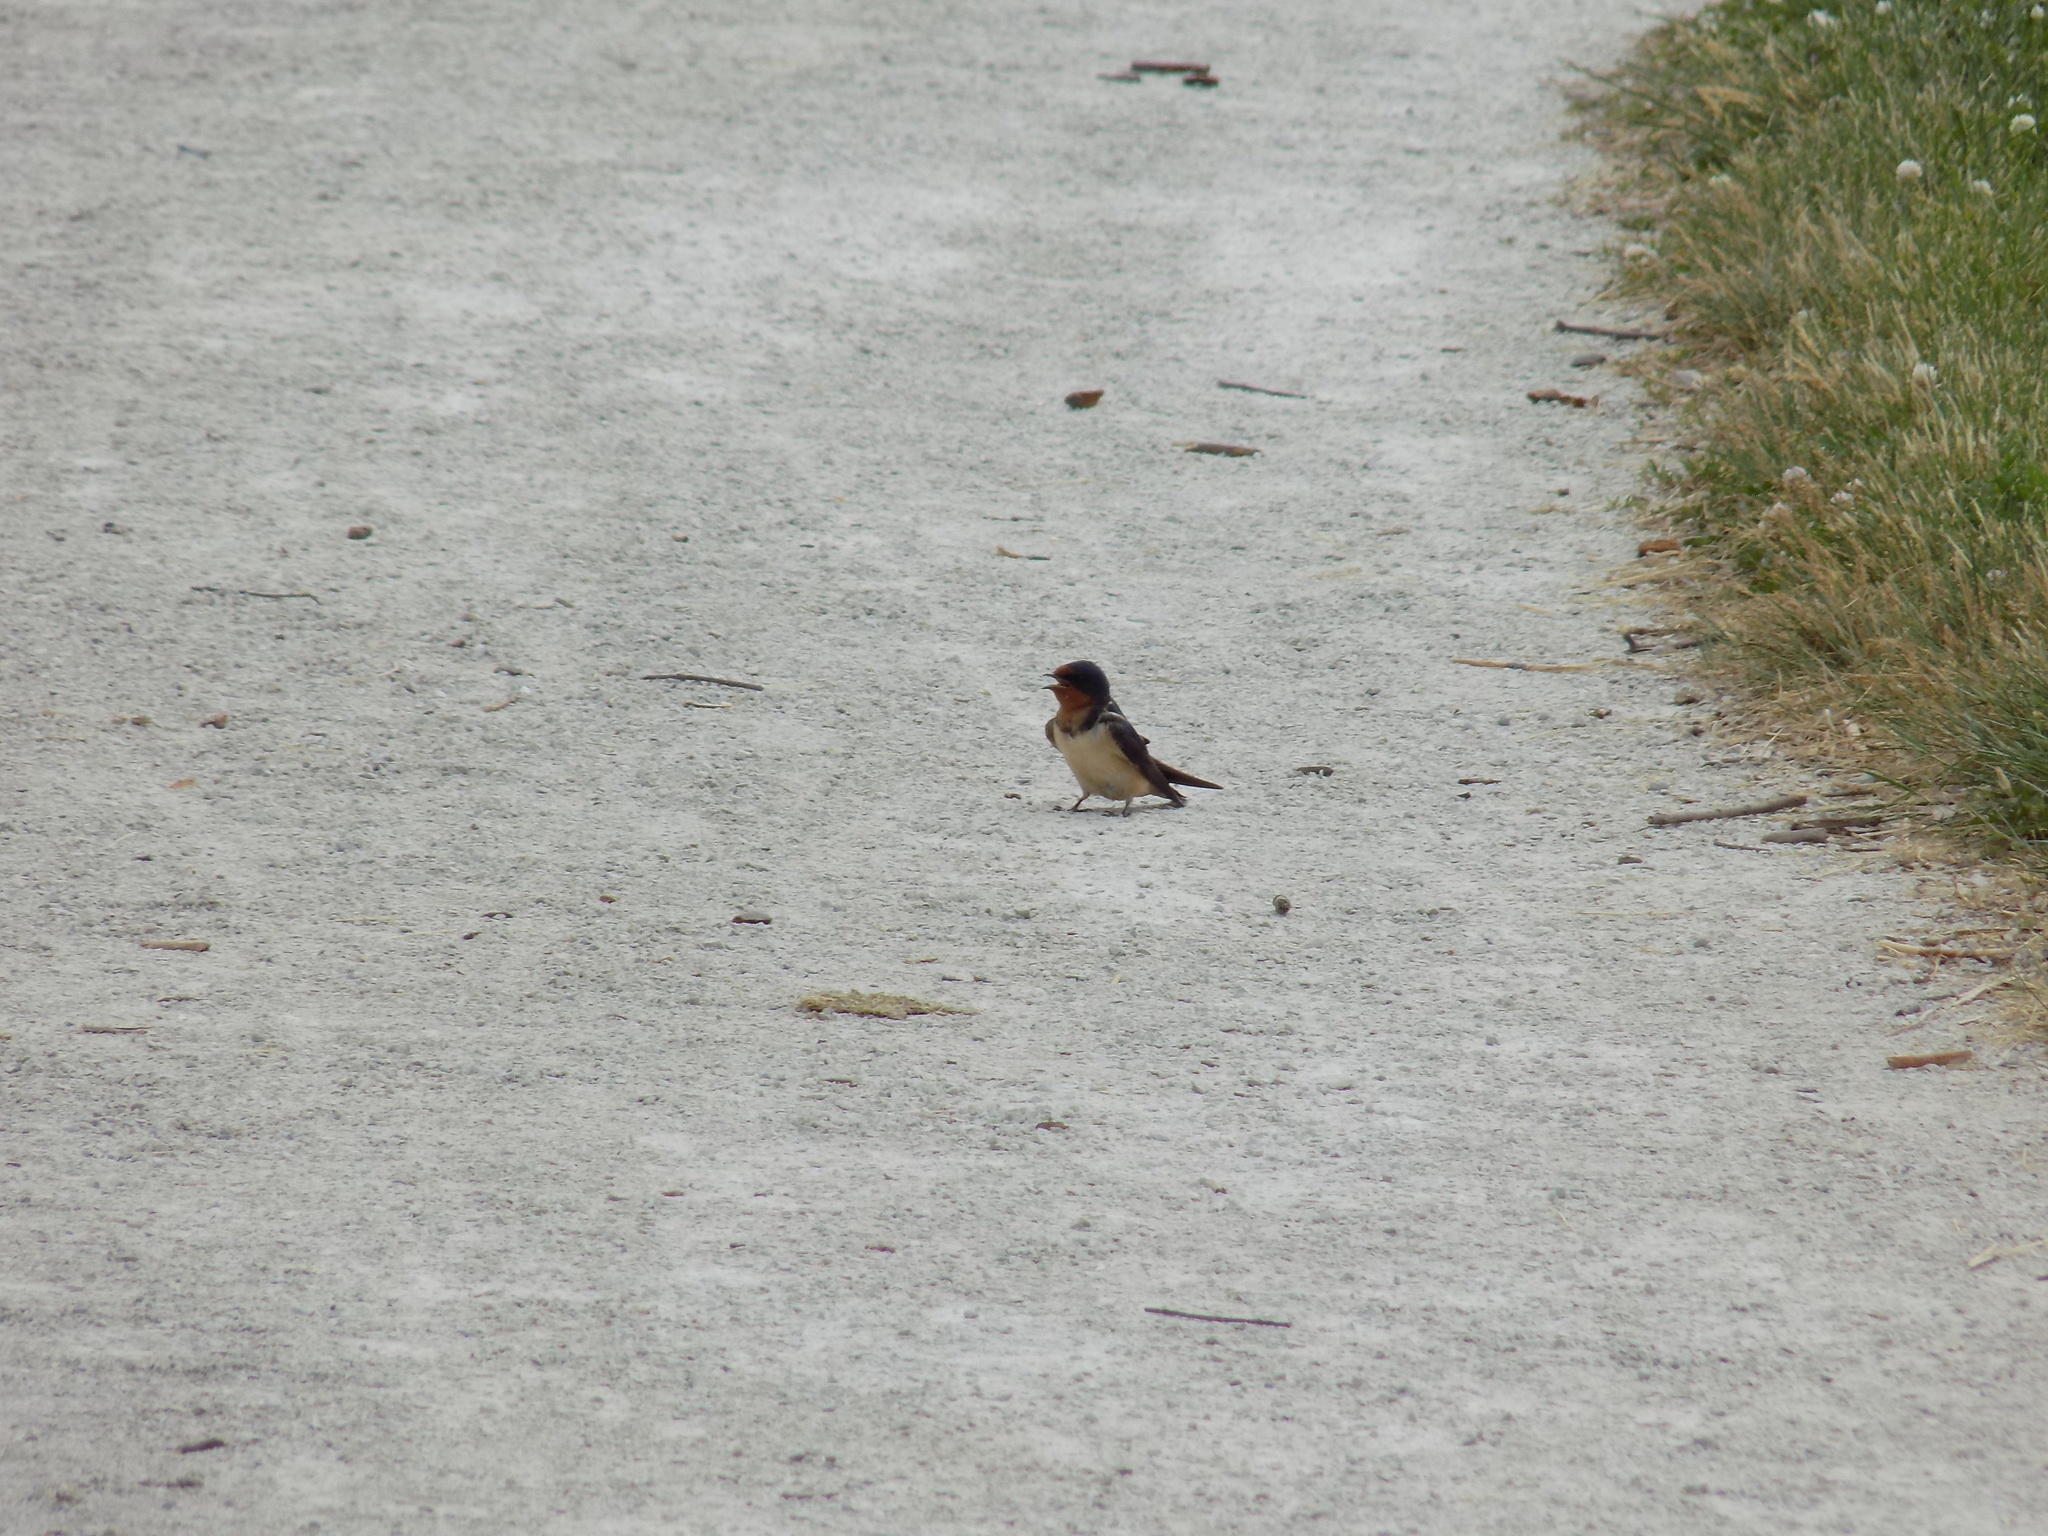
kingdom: Animalia
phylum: Chordata
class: Aves
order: Passeriformes
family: Hirundinidae
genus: Hirundo
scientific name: Hirundo rustica
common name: Barn swallow
